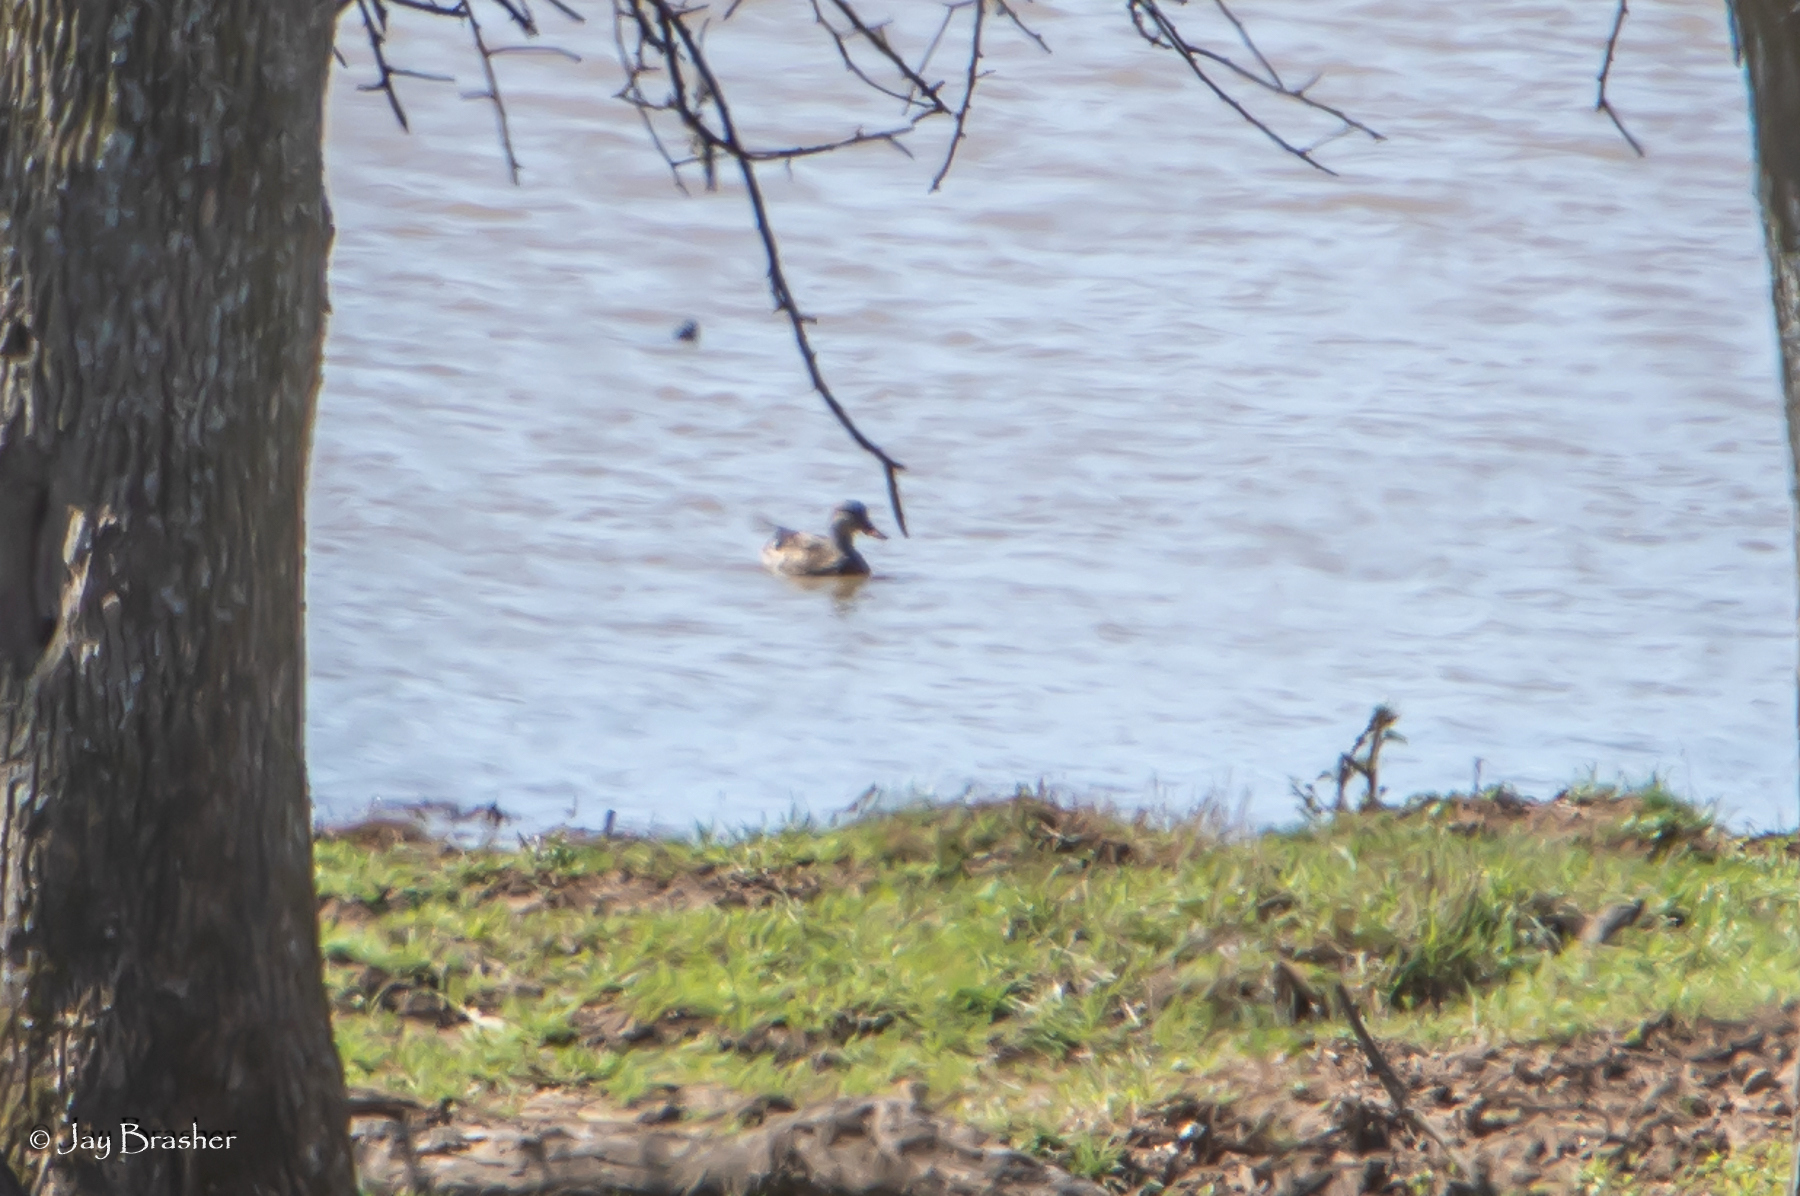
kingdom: Animalia
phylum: Chordata
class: Aves
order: Anseriformes
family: Anatidae
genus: Anas
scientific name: Anas platyrhynchos
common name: Mallard
